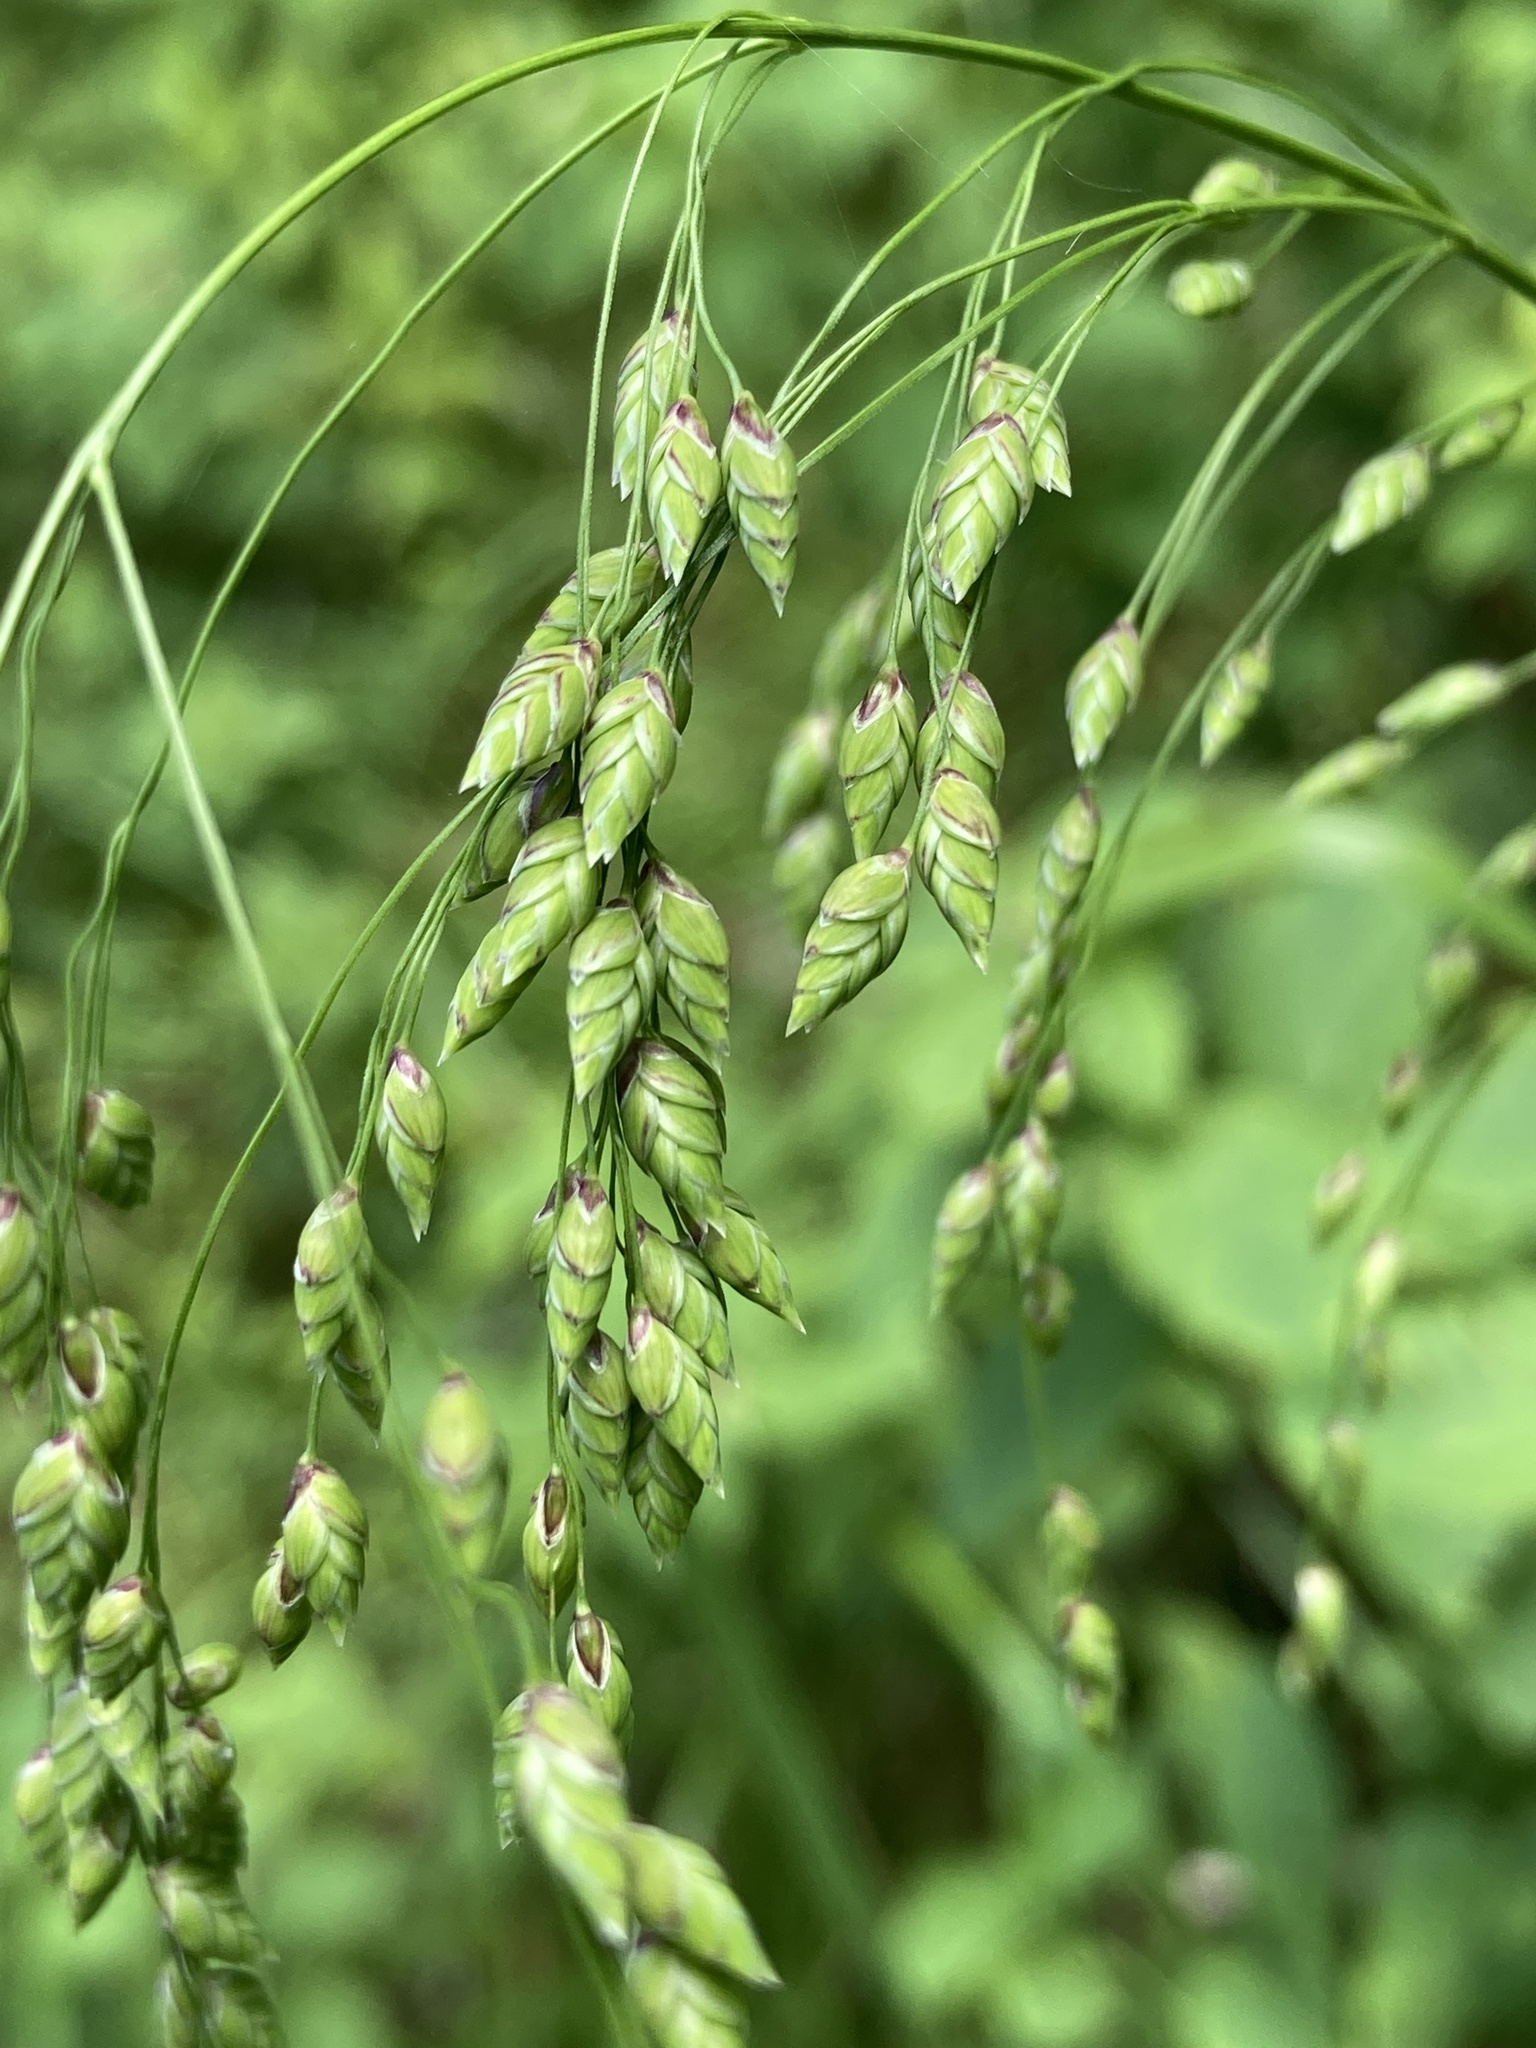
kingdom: Plantae
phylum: Tracheophyta
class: Liliopsida
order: Poales
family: Poaceae
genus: Glyceria
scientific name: Glyceria canadensis
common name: Canada mannagrass
